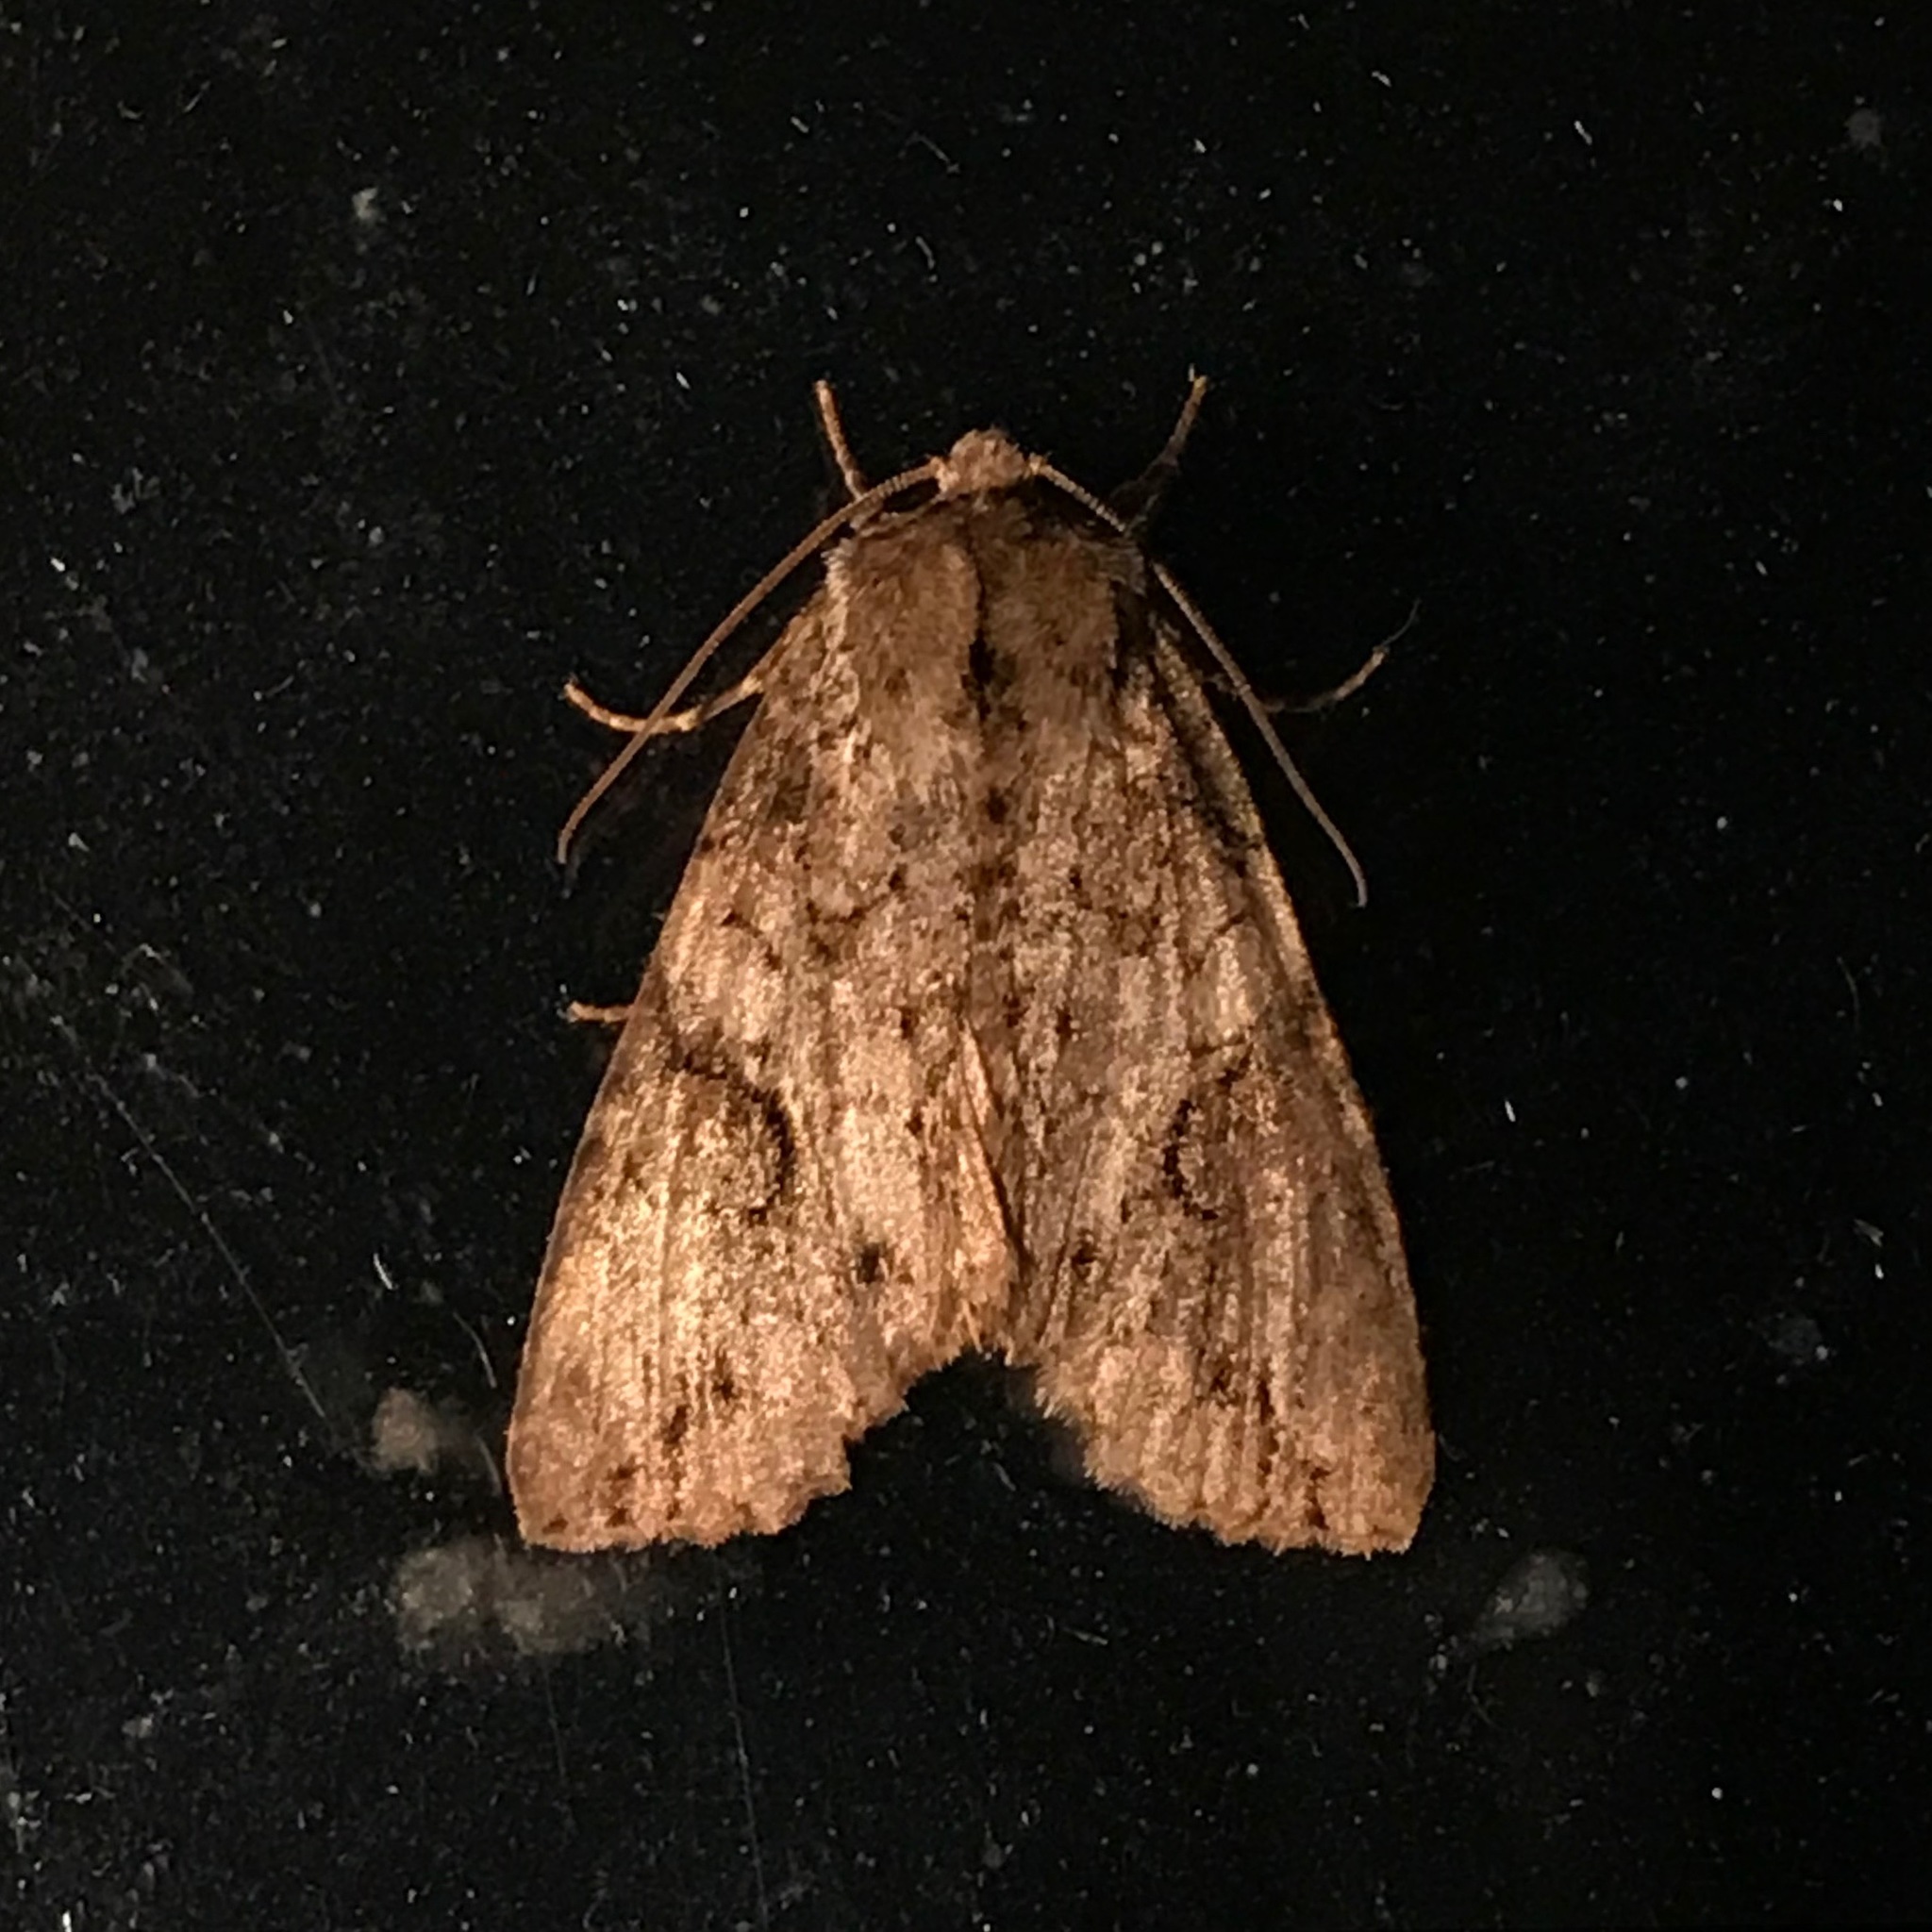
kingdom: Animalia
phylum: Arthropoda
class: Insecta
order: Lepidoptera
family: Noctuidae
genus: Achatia
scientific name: Achatia latex
